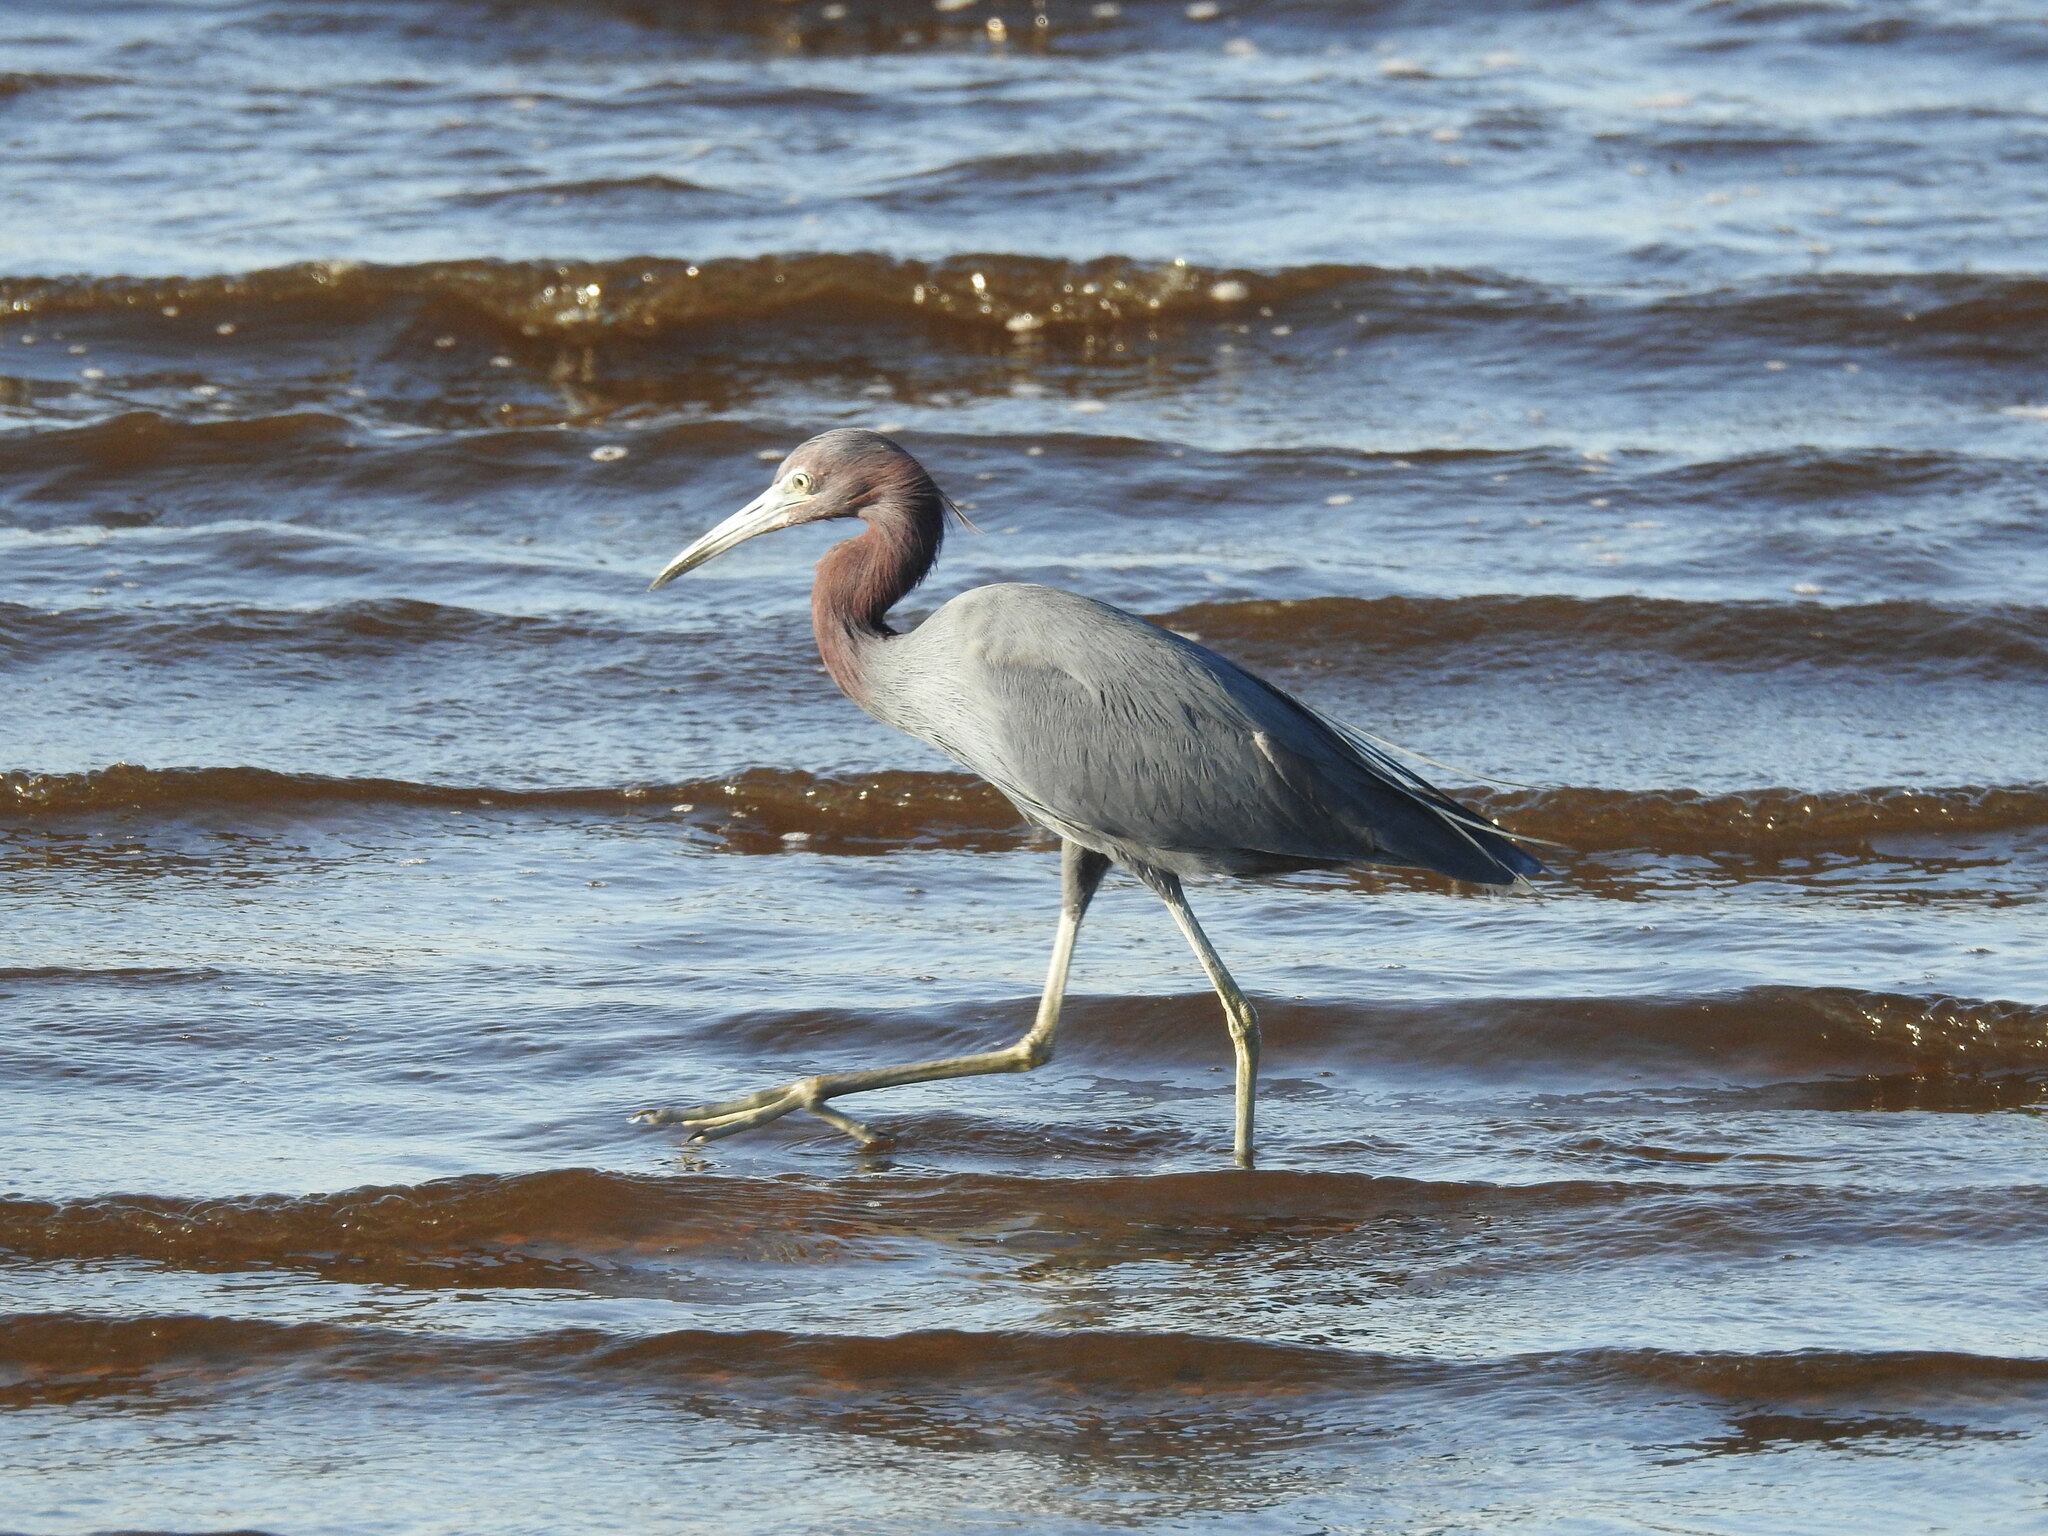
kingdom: Animalia
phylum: Chordata
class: Aves
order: Pelecaniformes
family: Ardeidae
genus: Egretta
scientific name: Egretta rufescens
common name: Reddish egret
